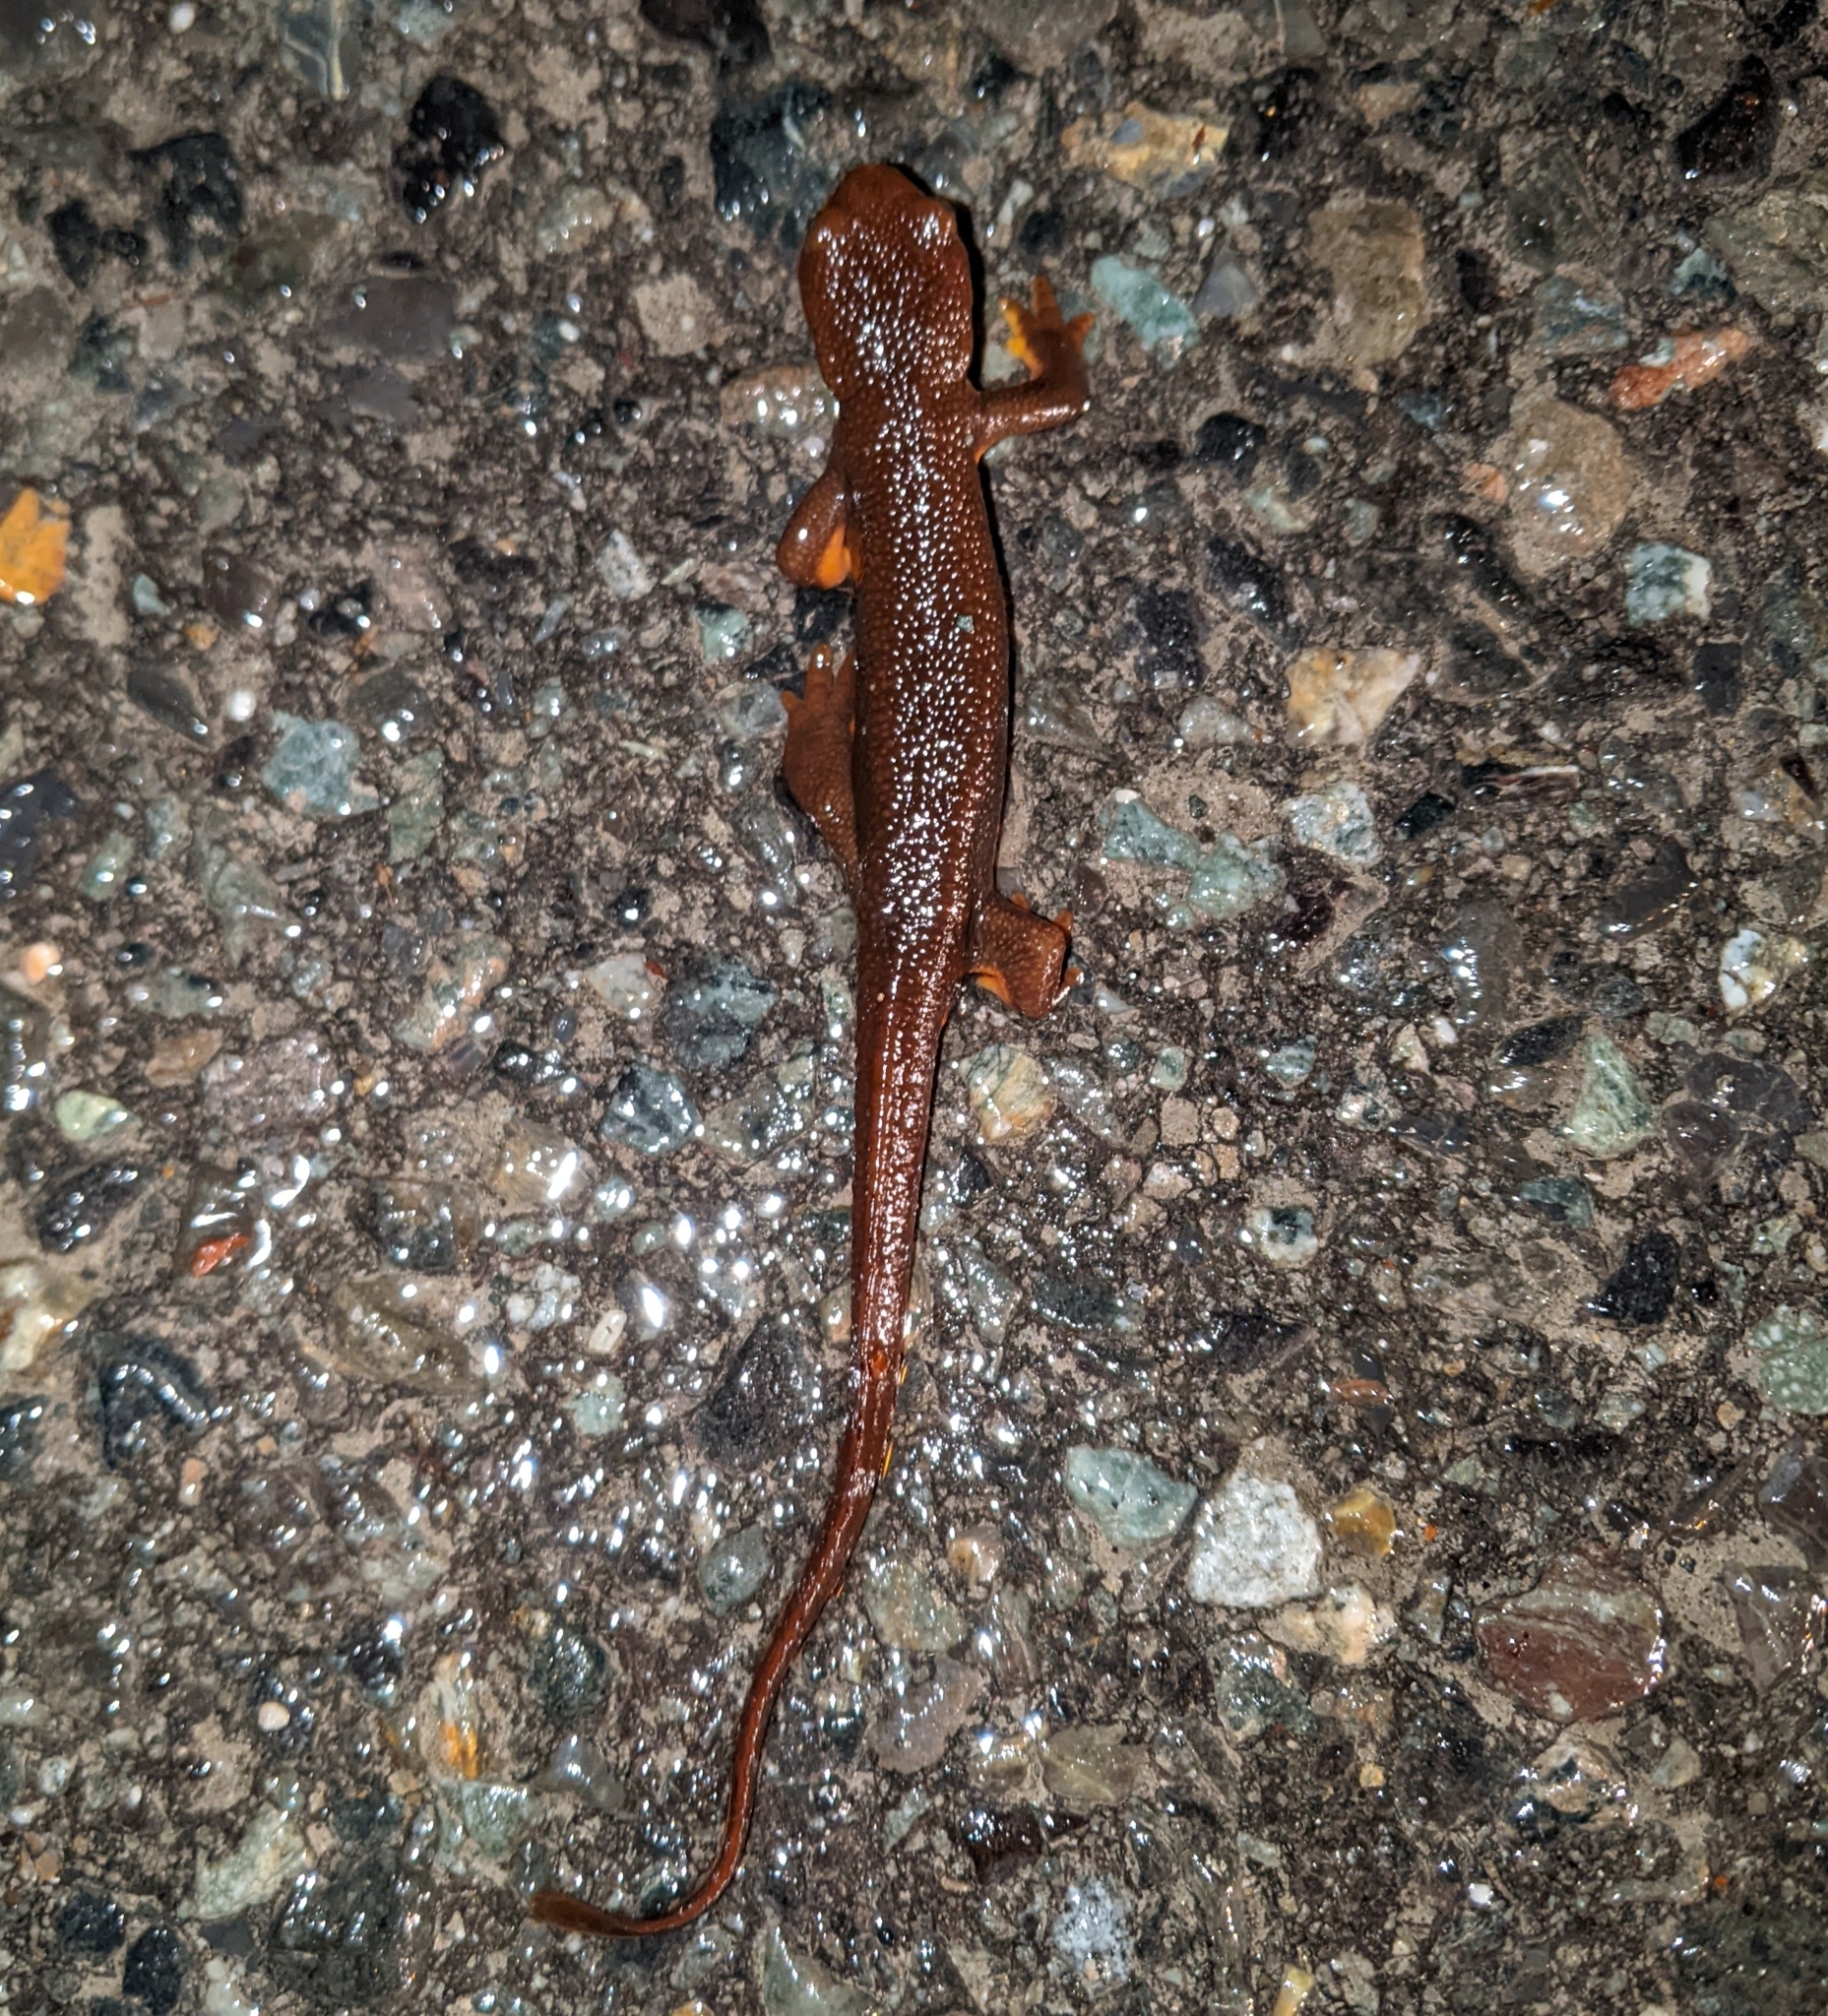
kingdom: Animalia
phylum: Chordata
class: Amphibia
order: Caudata
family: Salamandridae
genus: Taricha
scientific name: Taricha granulosa
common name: Roughskin newt
